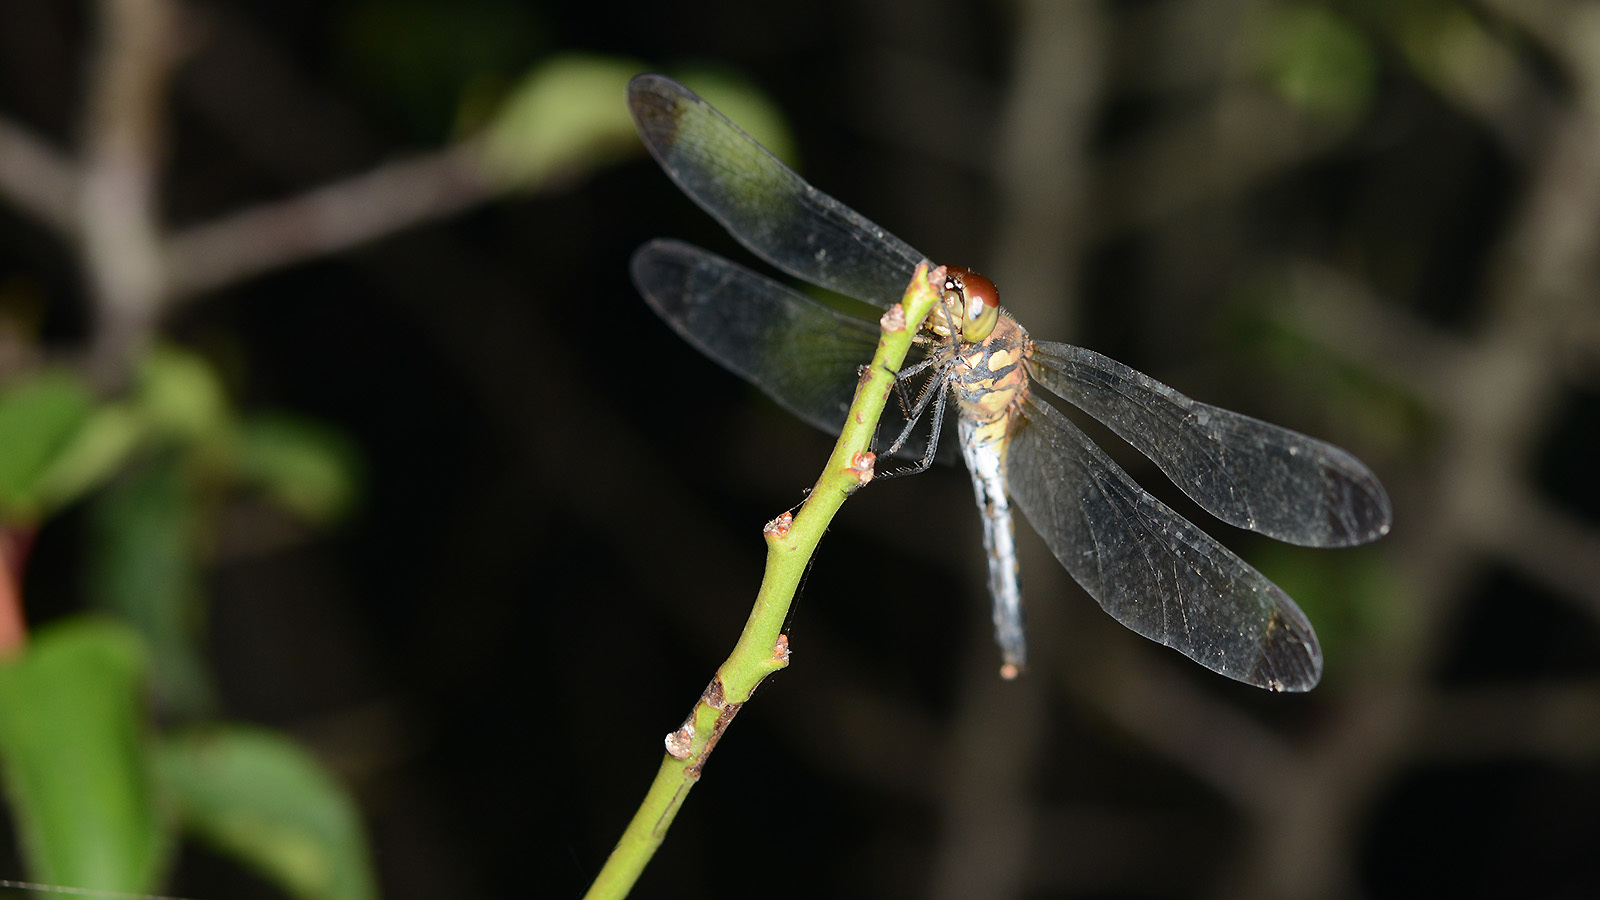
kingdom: Animalia
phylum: Arthropoda
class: Insecta
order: Odonata
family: Libellulidae
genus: Sympetrum
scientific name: Sympetrum infuscatum
